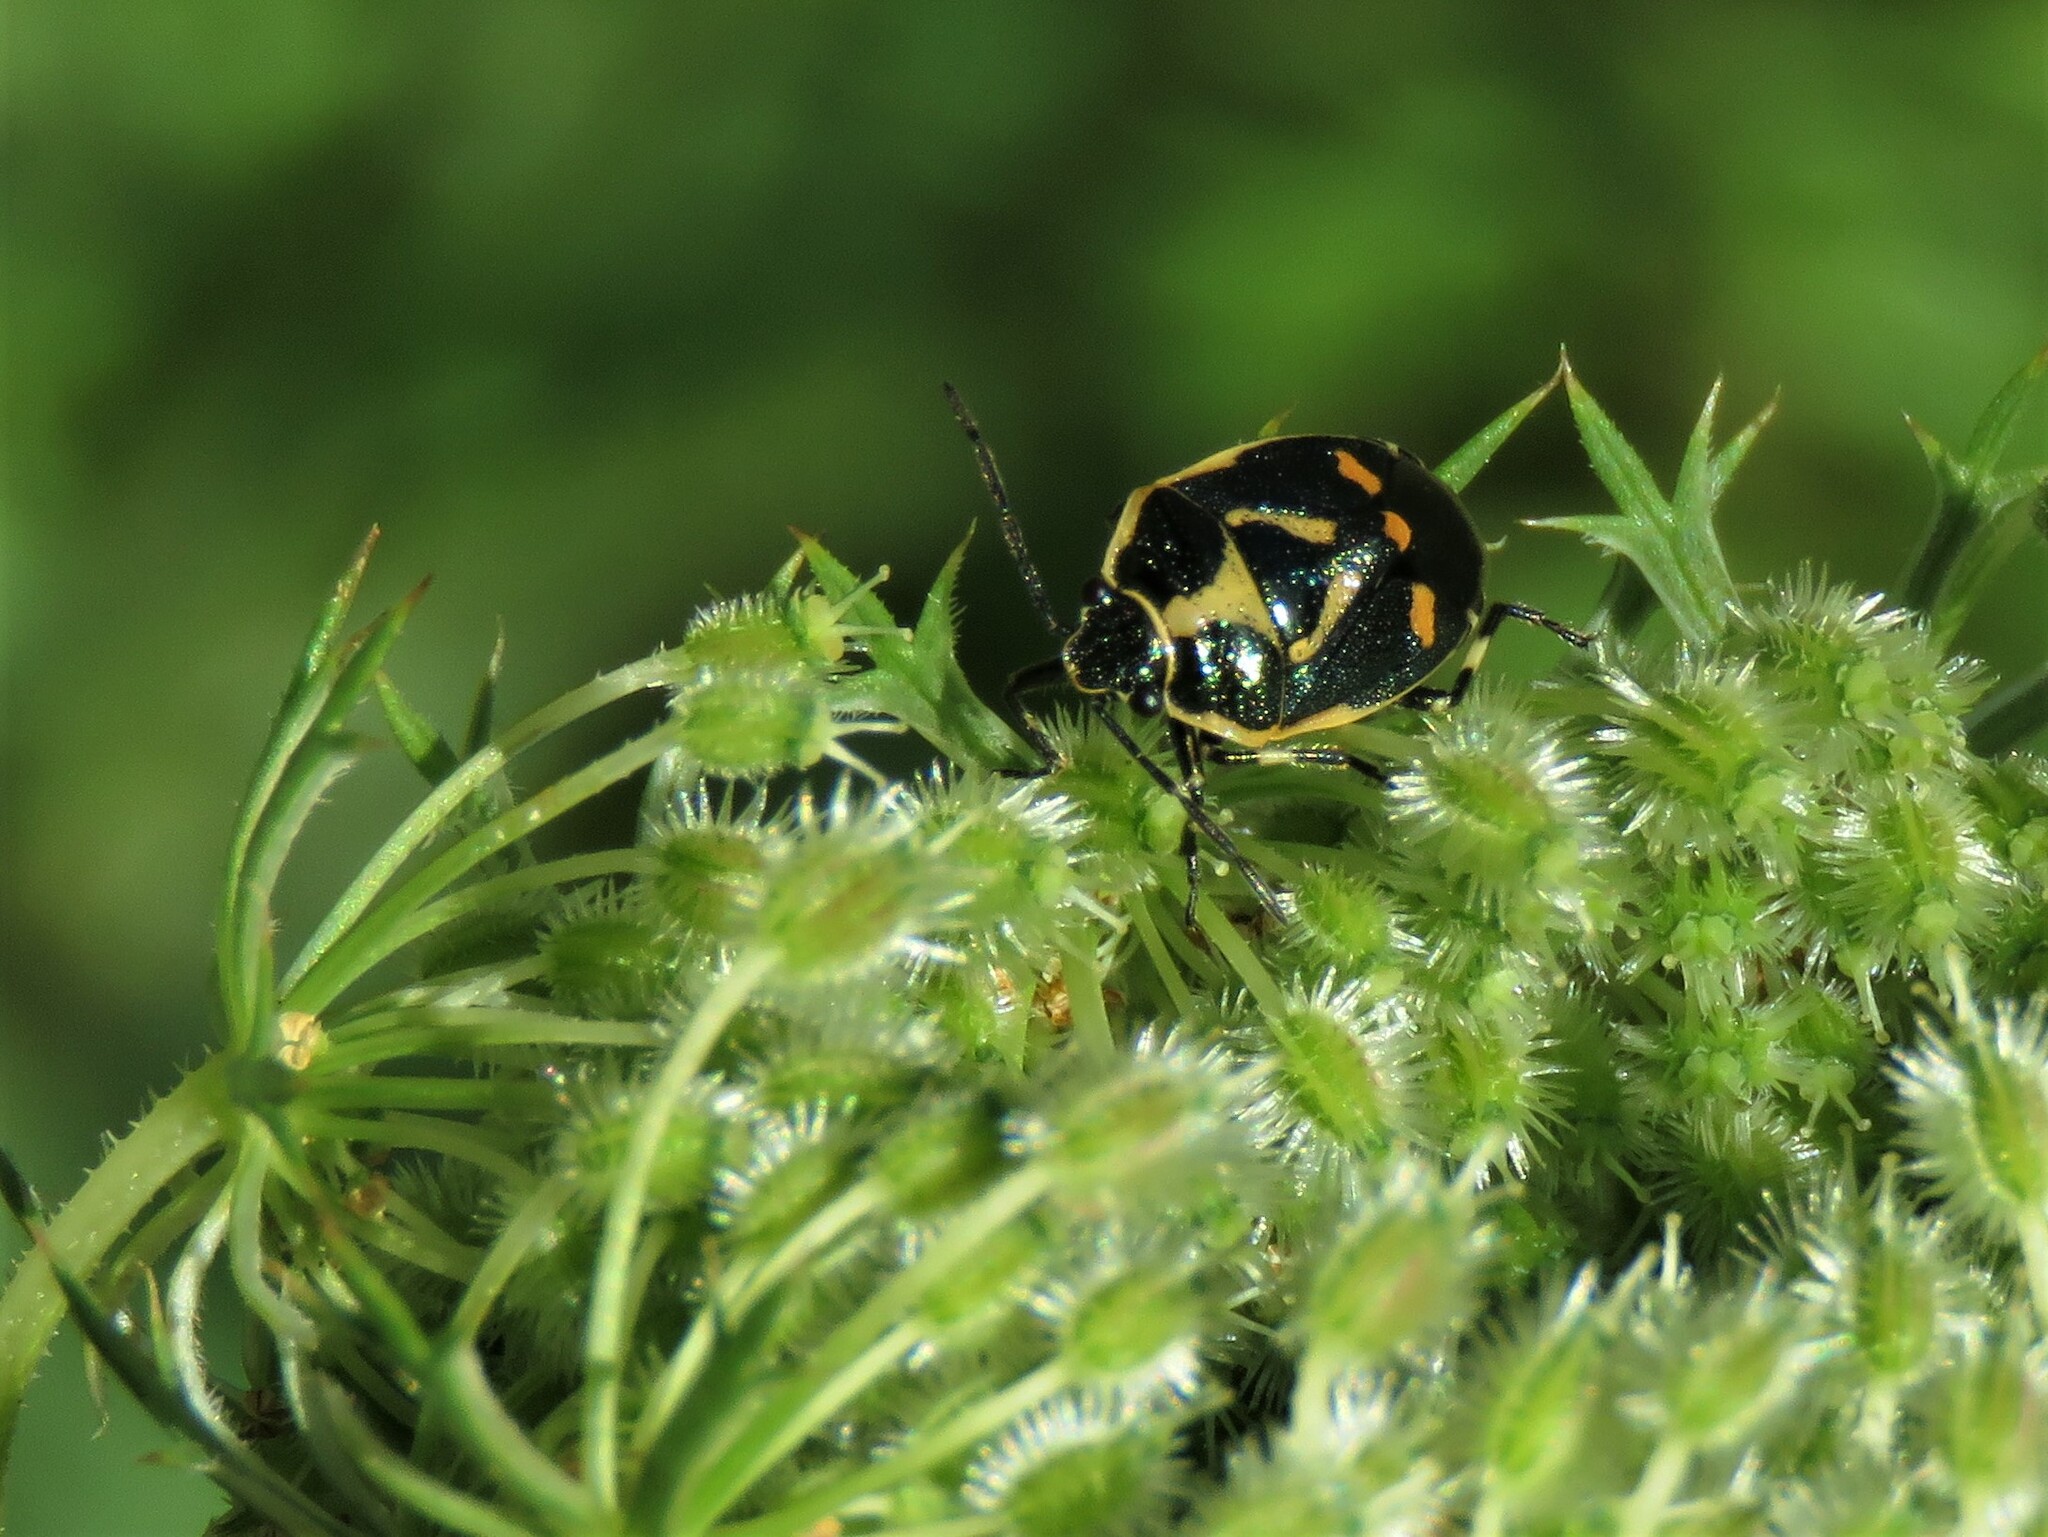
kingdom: Animalia
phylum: Arthropoda
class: Insecta
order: Hemiptera
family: Pentatomidae
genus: Eurydema
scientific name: Eurydema oleracea
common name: Cabbage bug
